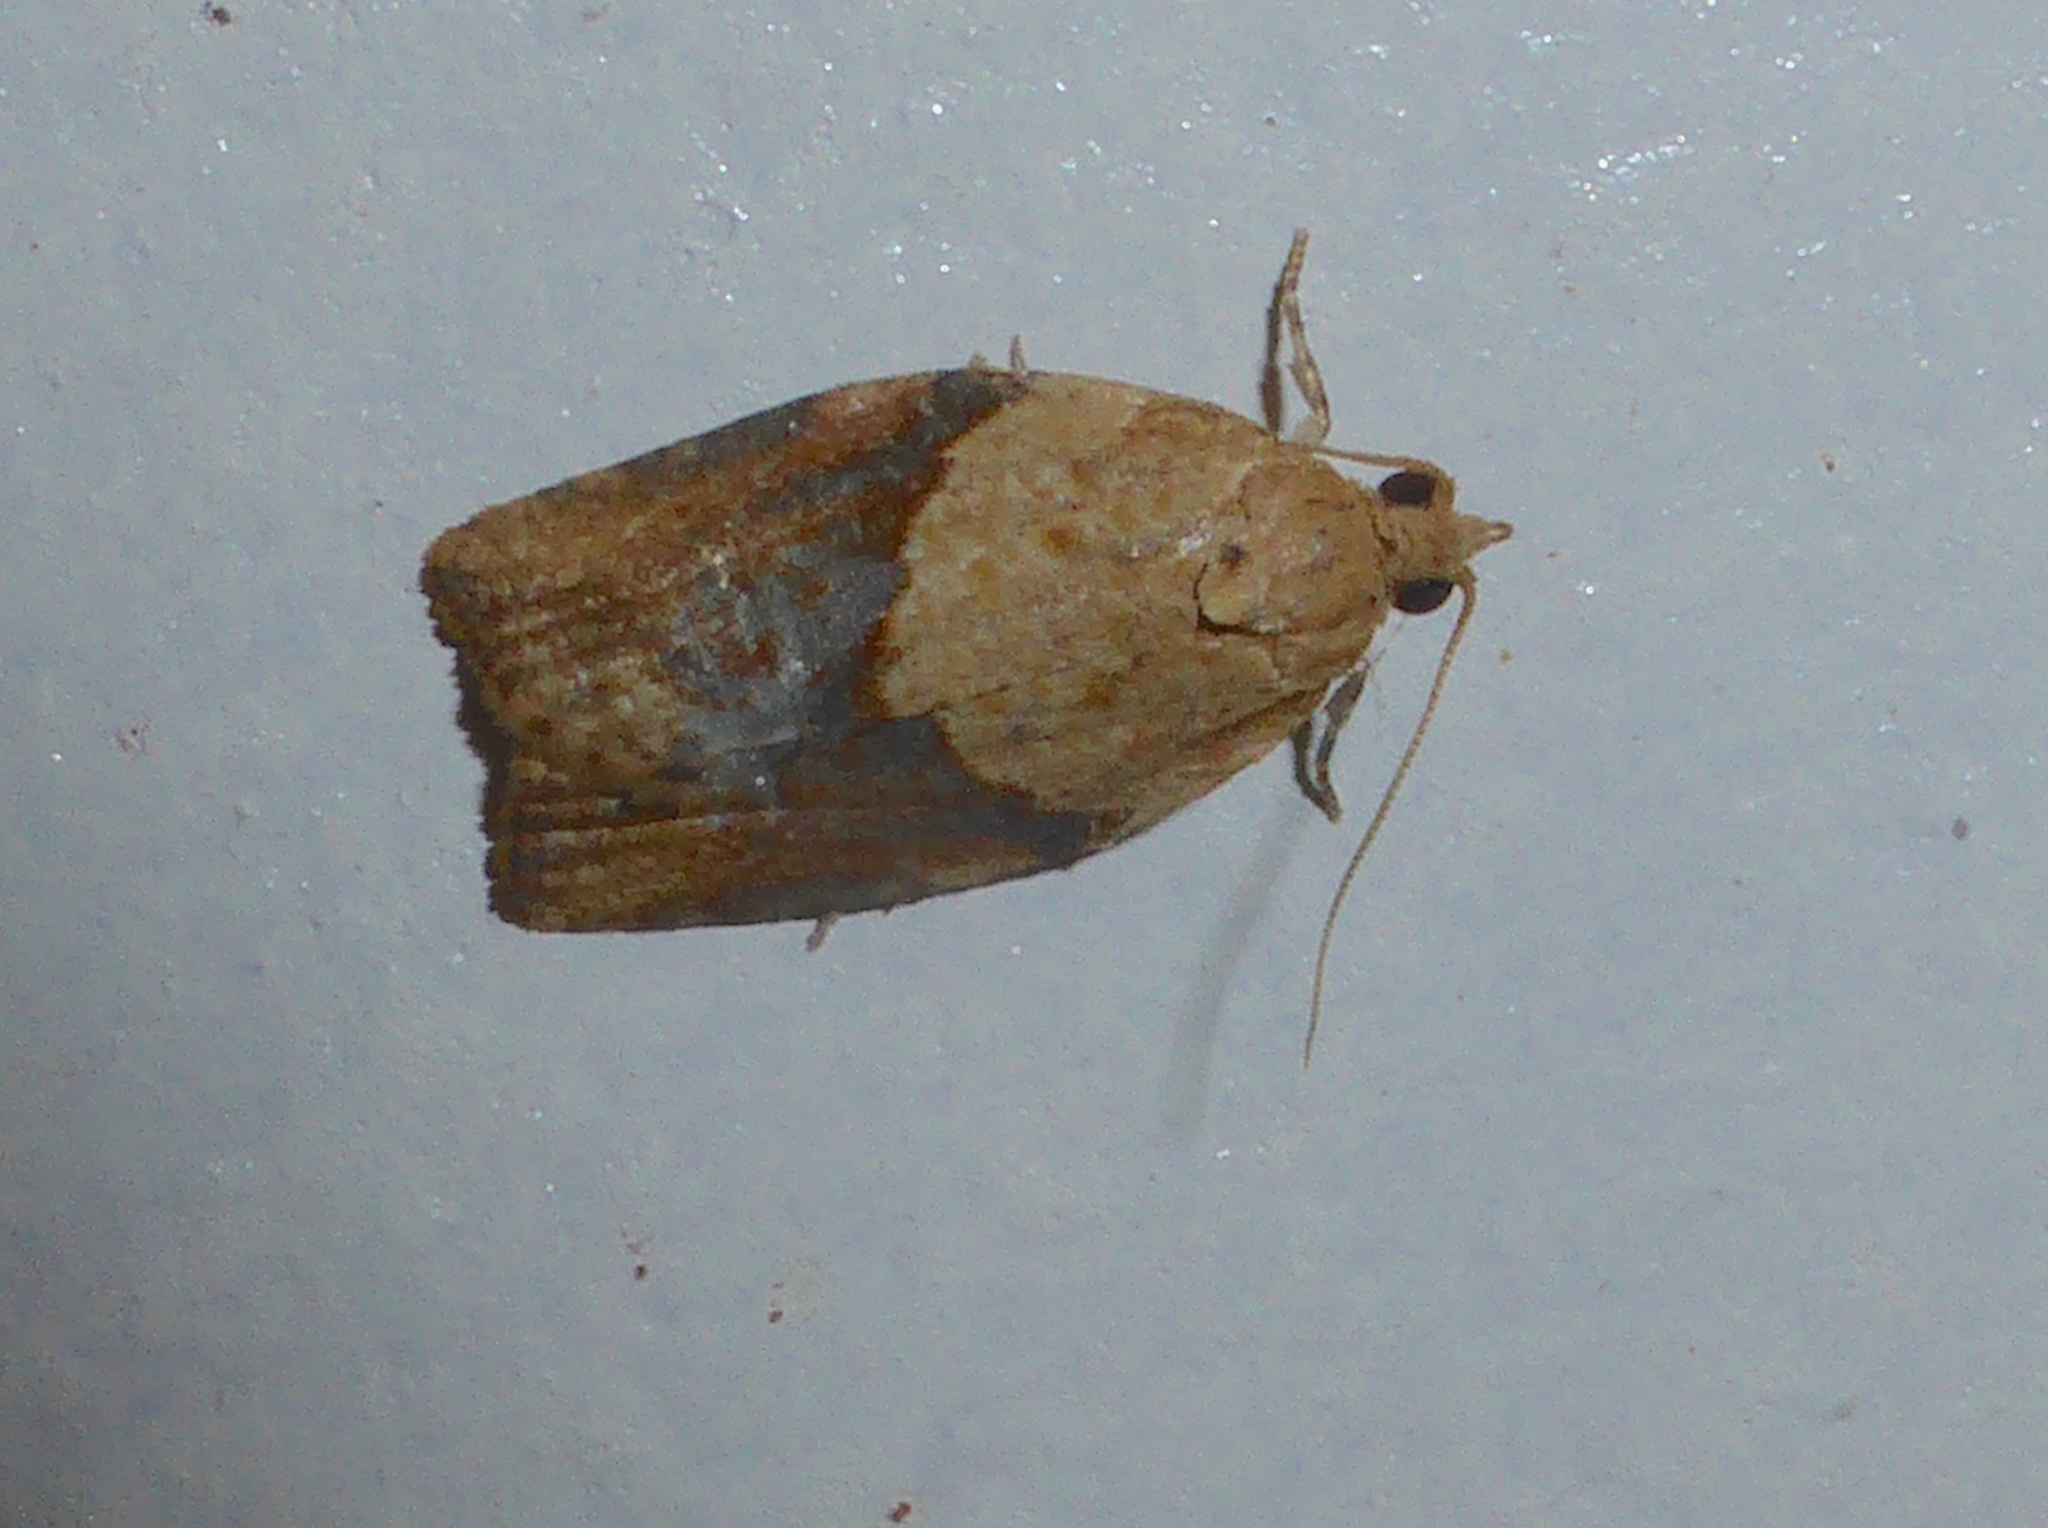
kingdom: Animalia
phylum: Arthropoda
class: Insecta
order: Lepidoptera
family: Tortricidae
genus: Epiphyas
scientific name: Epiphyas postvittana
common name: Light brown apple moth
